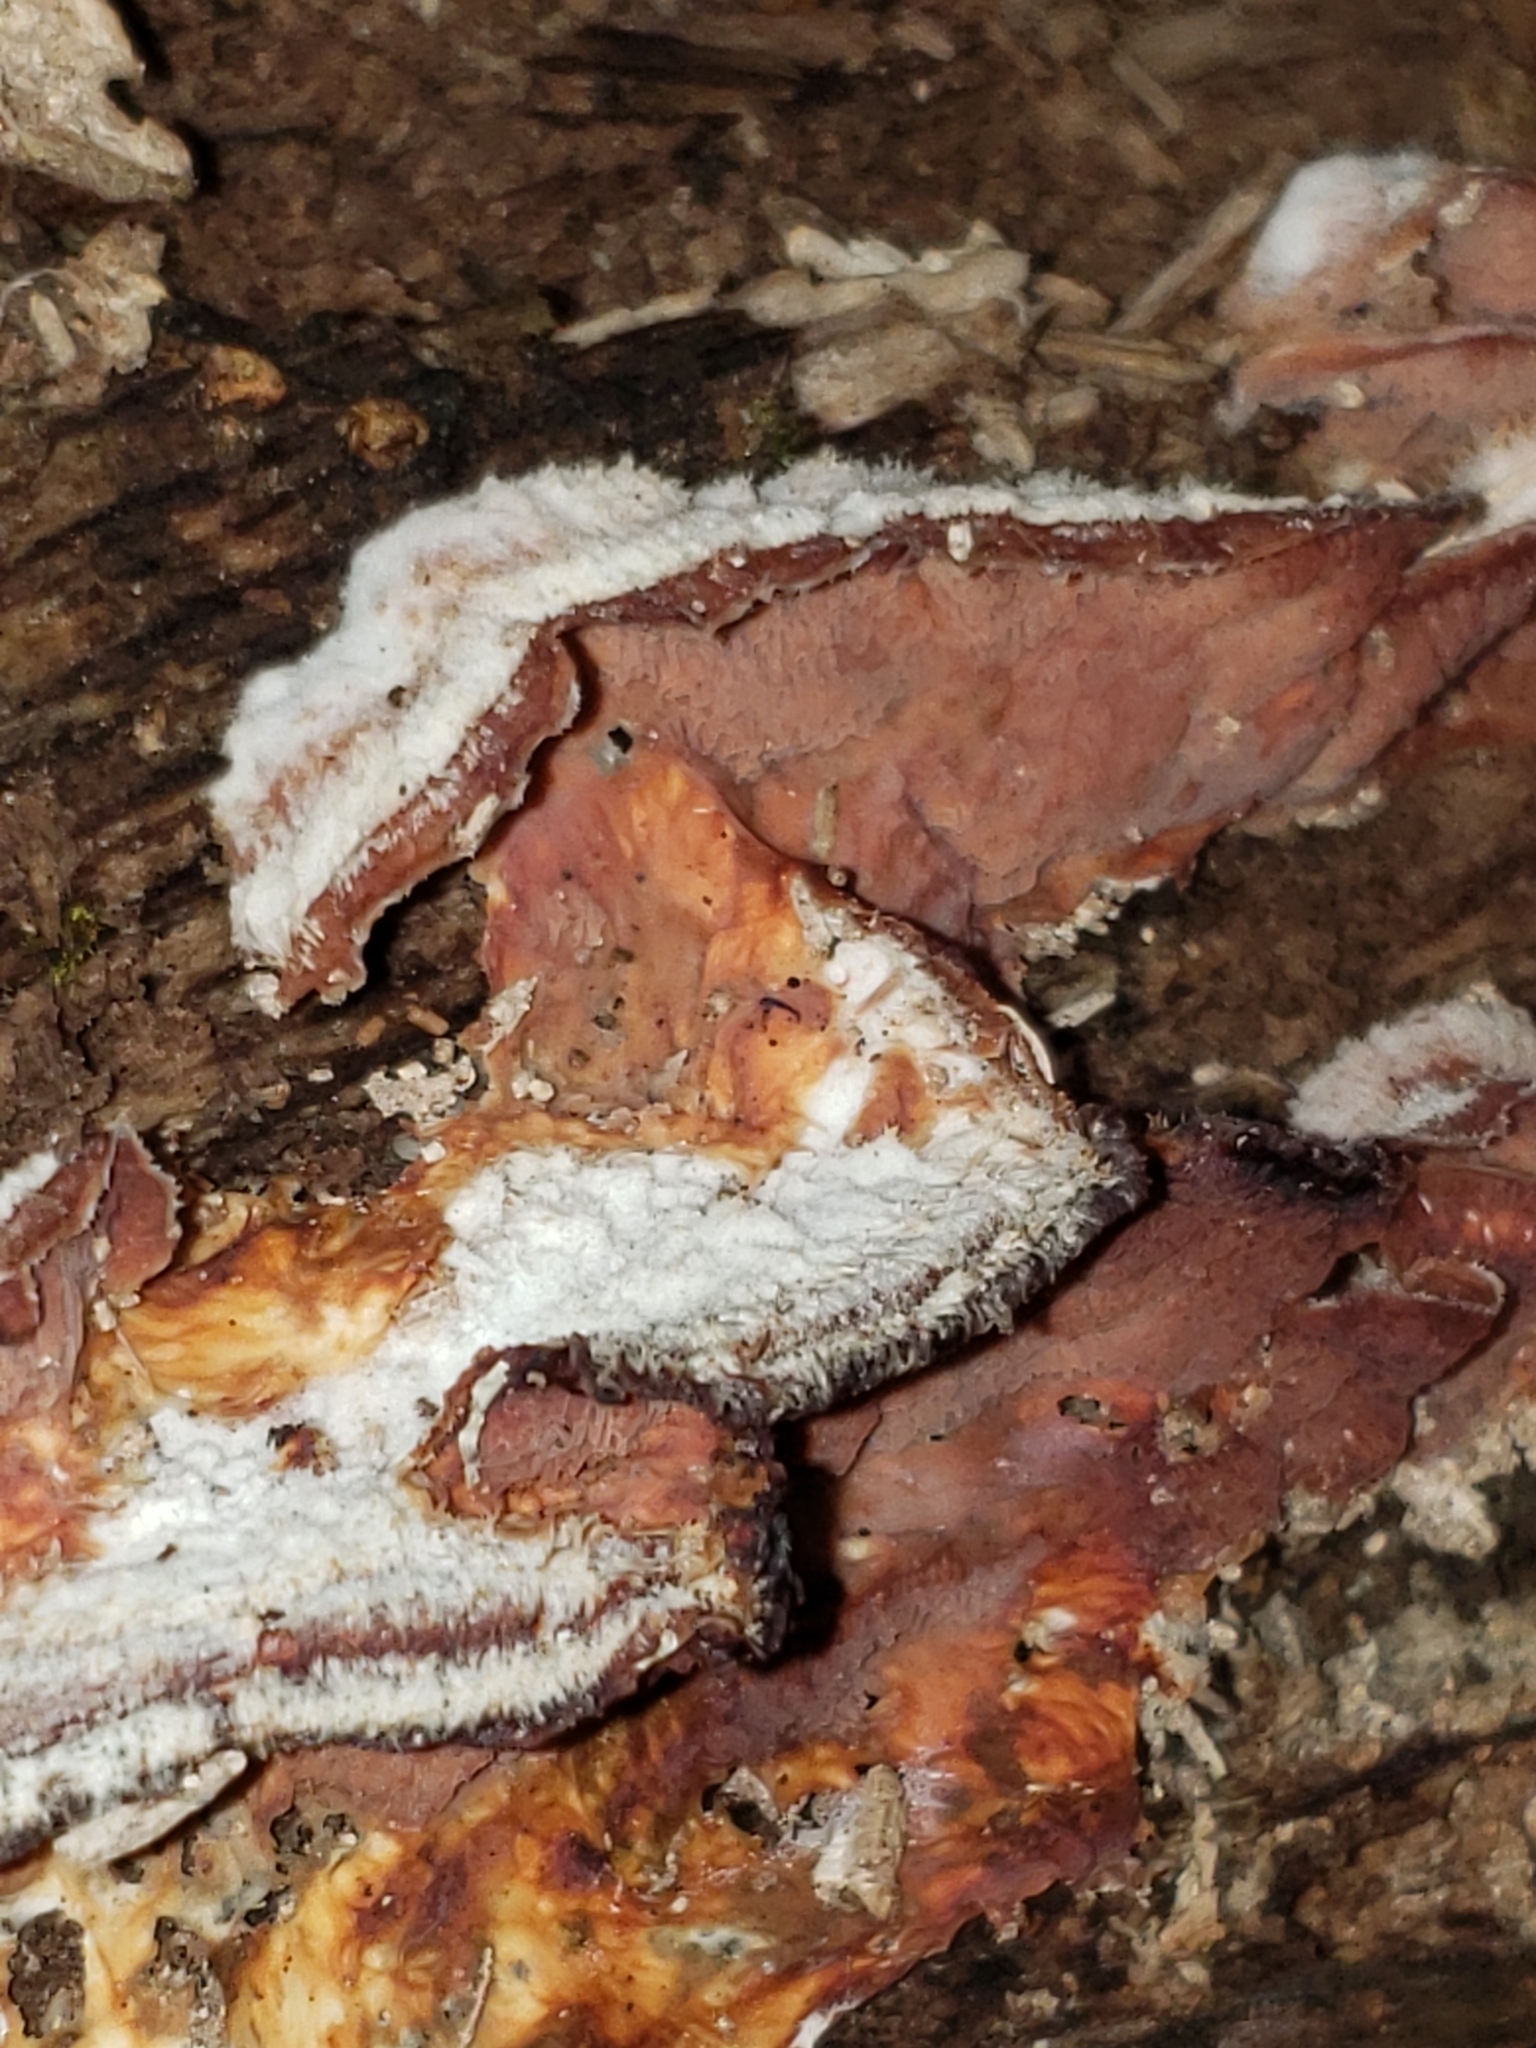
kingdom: Fungi
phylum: Basidiomycota
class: Agaricomycetes
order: Polyporales
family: Meruliaceae
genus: Phlebia
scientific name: Phlebia tremellosa
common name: Jelly rot
